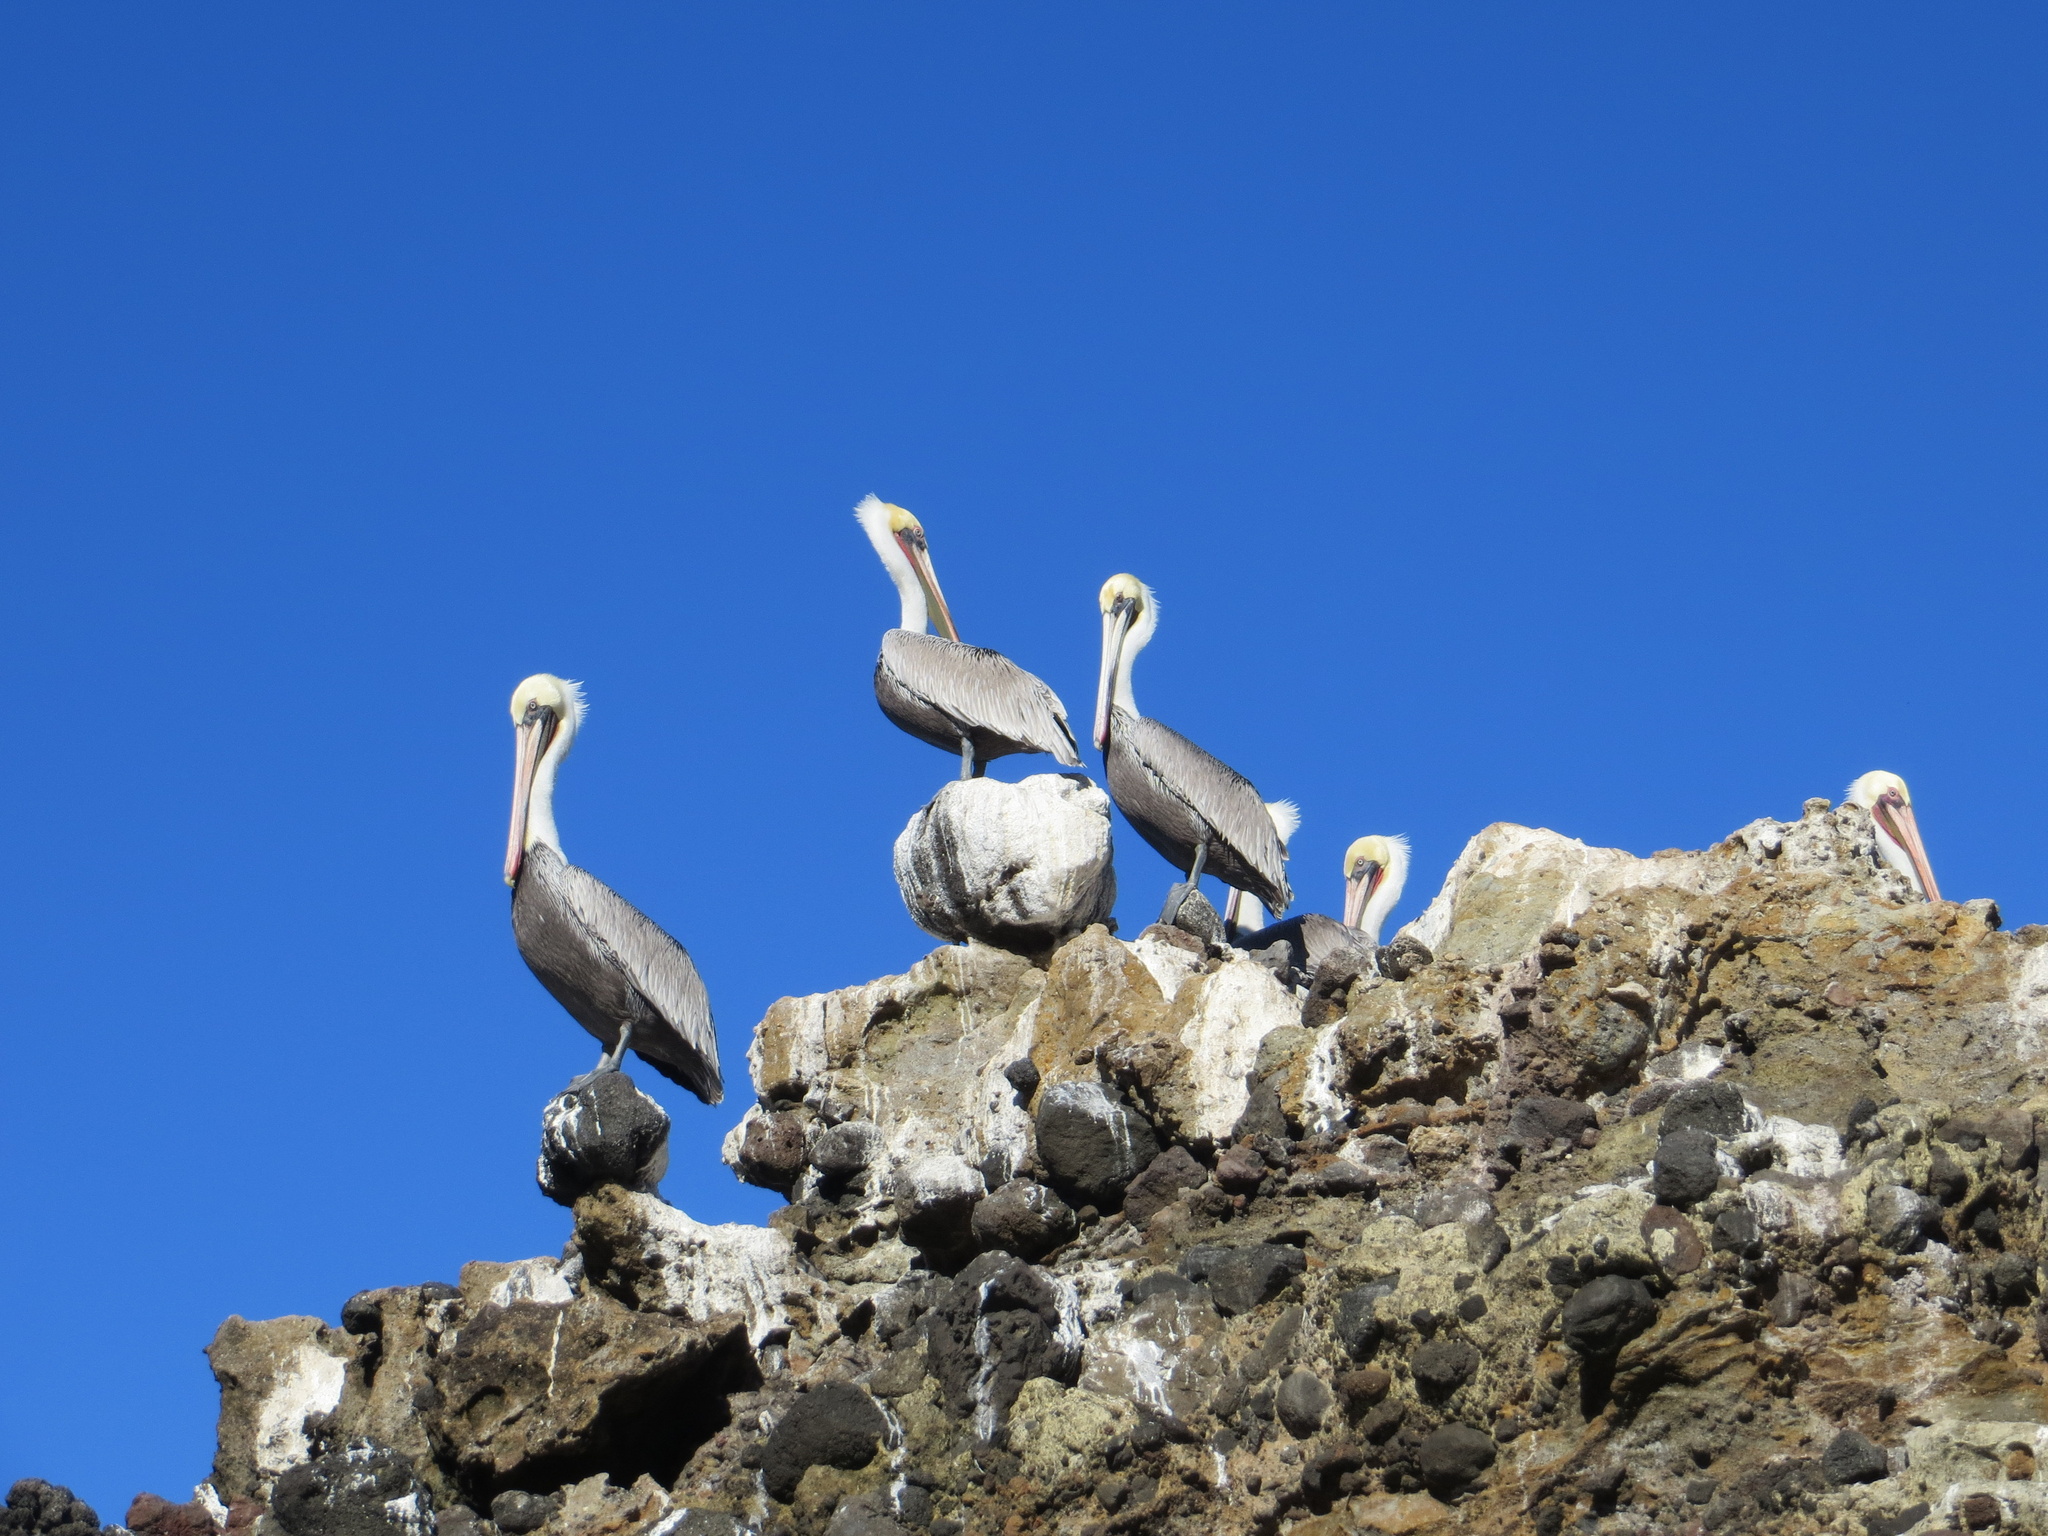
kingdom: Animalia
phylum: Chordata
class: Aves
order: Pelecaniformes
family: Pelecanidae
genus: Pelecanus
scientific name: Pelecanus occidentalis
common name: Brown pelican
